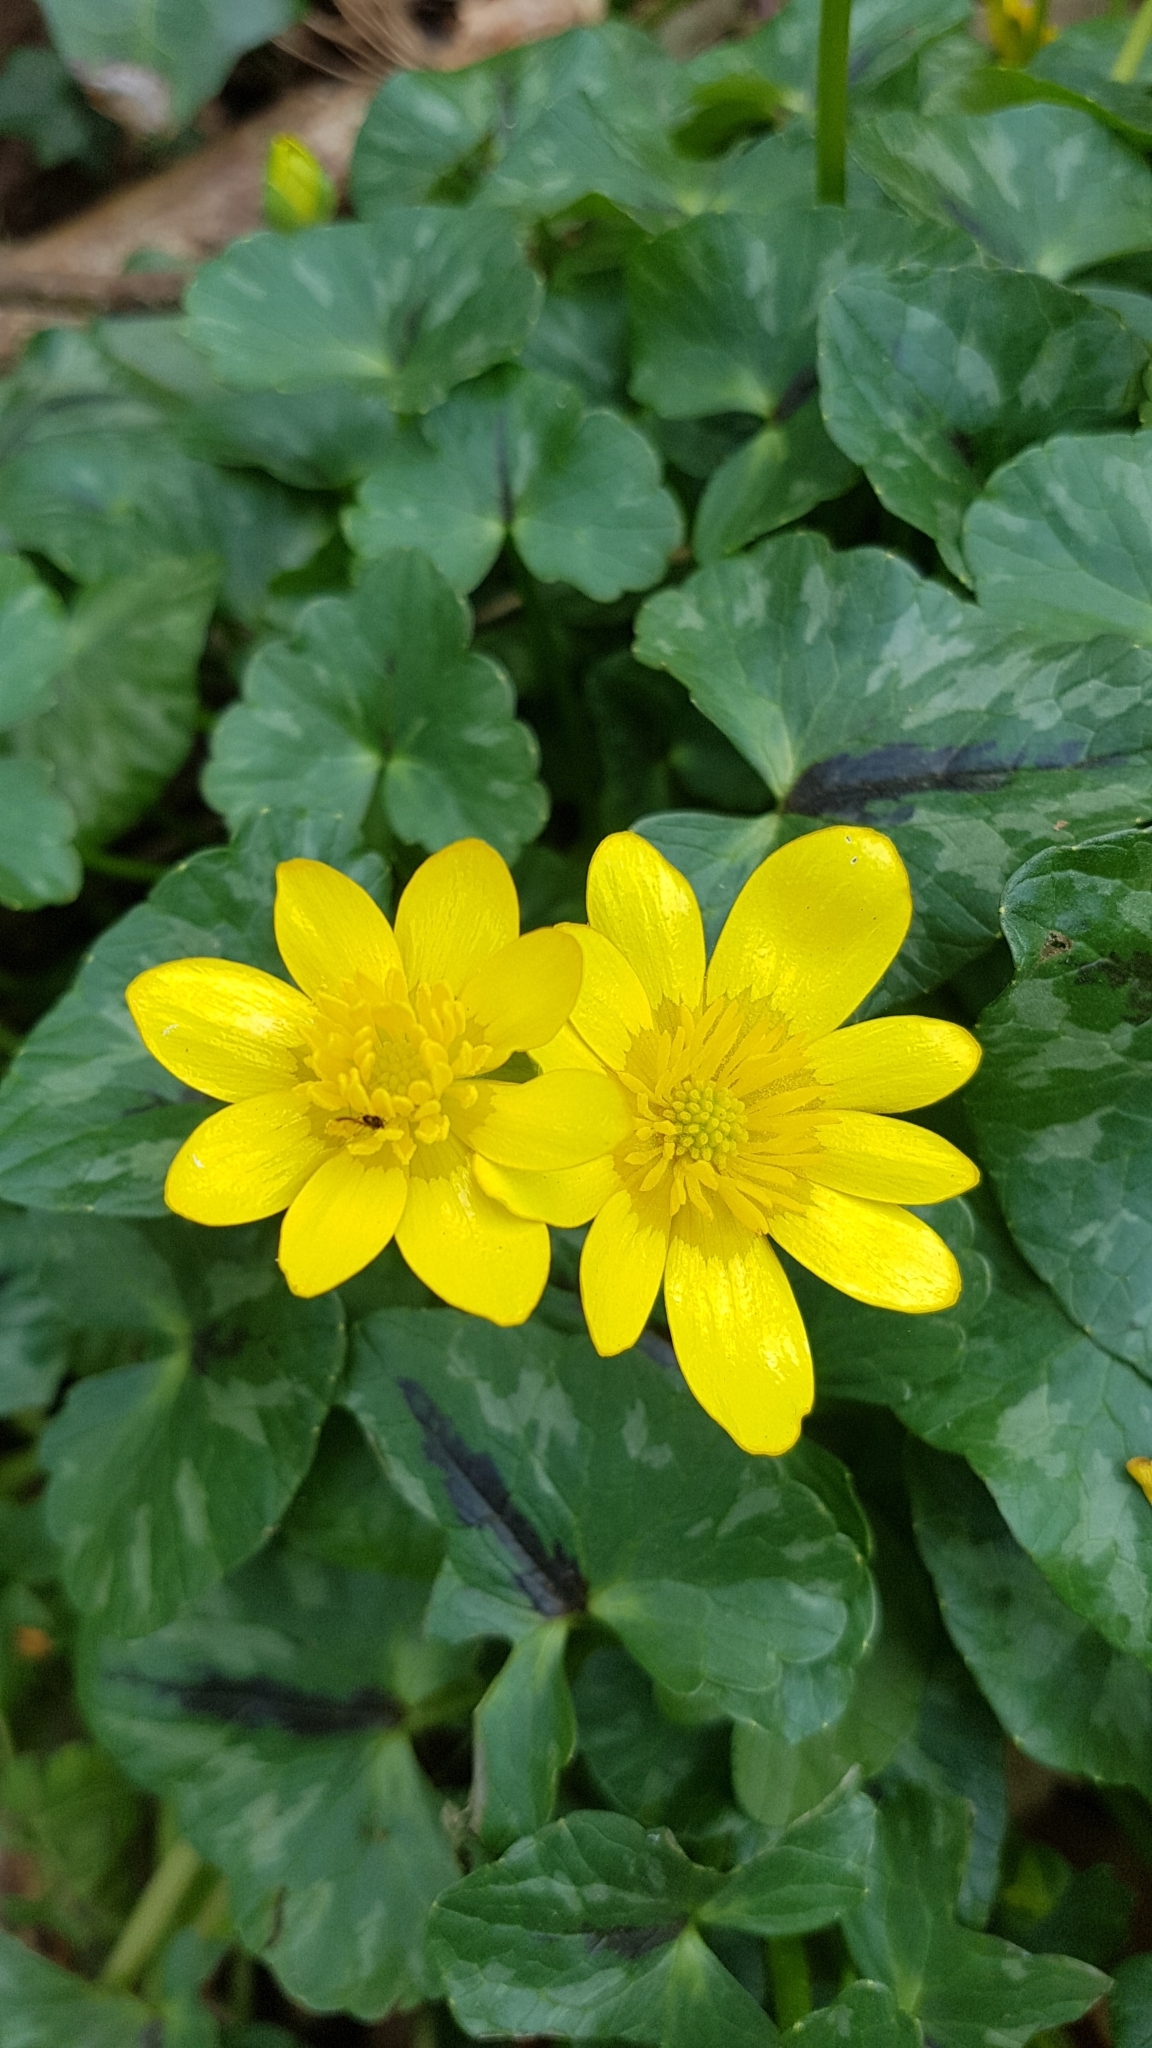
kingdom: Plantae
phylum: Tracheophyta
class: Magnoliopsida
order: Ranunculales
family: Ranunculaceae
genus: Ficaria
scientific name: Ficaria verna
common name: Lesser celandine
